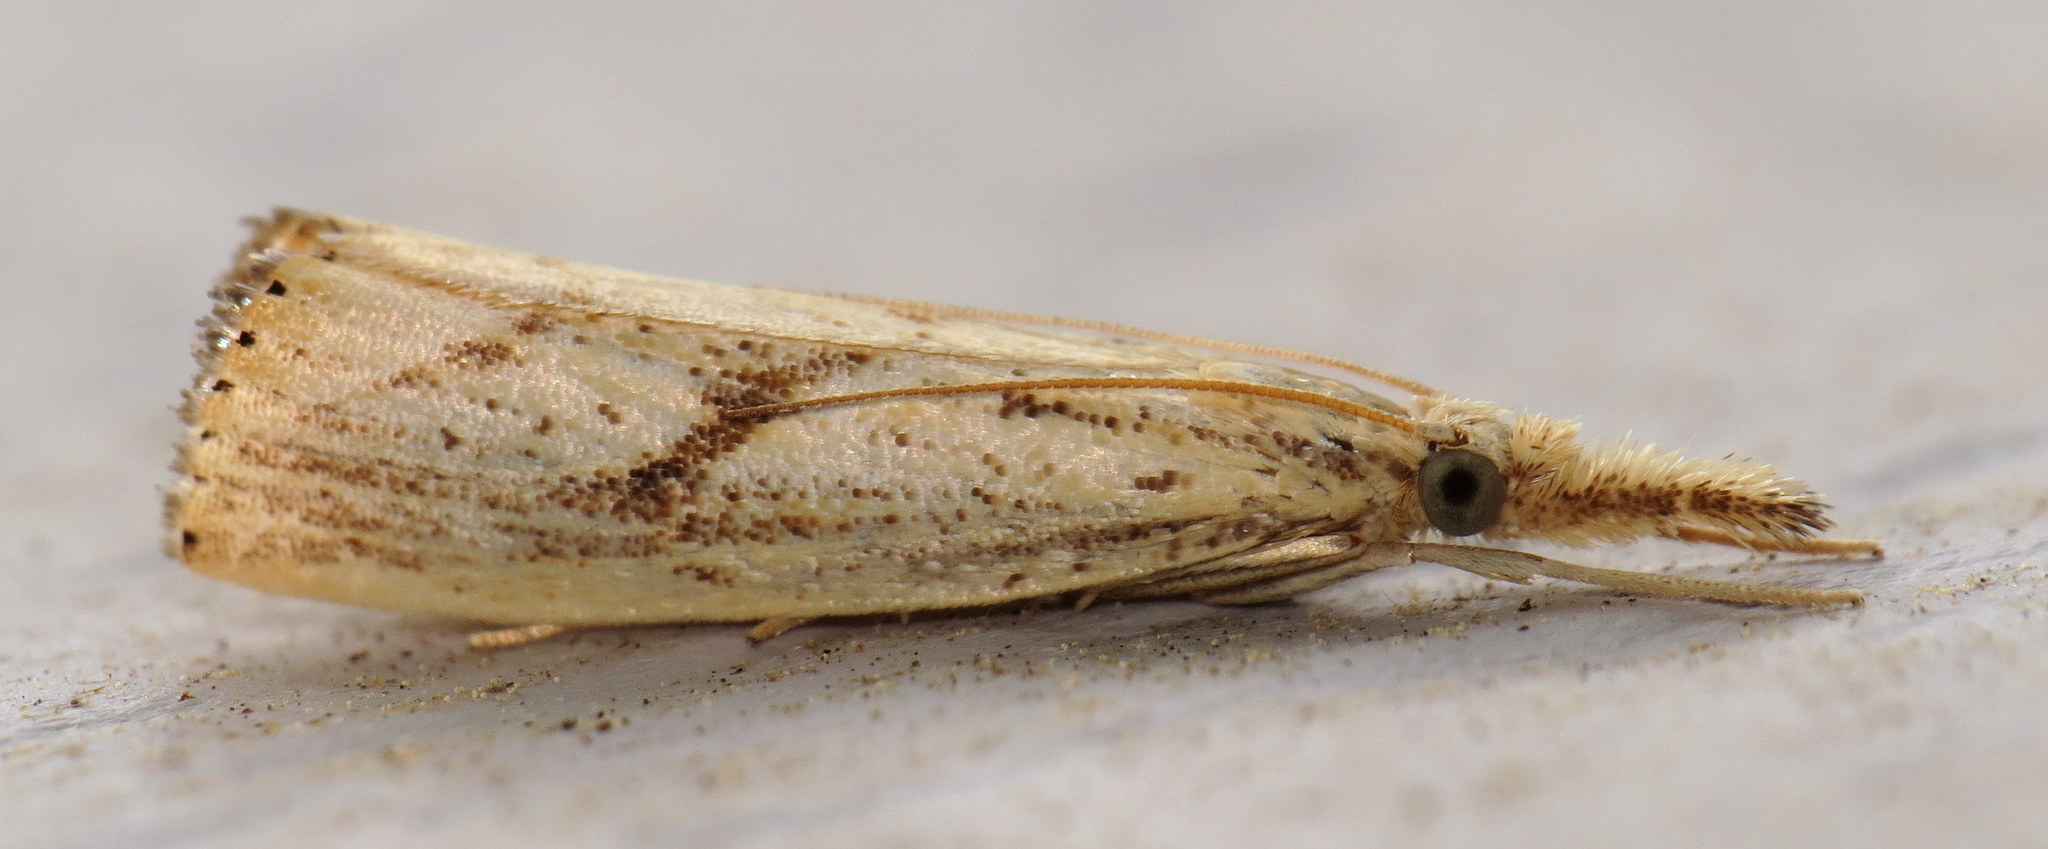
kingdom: Animalia
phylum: Arthropoda
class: Insecta
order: Lepidoptera
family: Crambidae
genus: Agriphila
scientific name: Agriphila ruricolellus
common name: Lesser vagabond sod webworm
